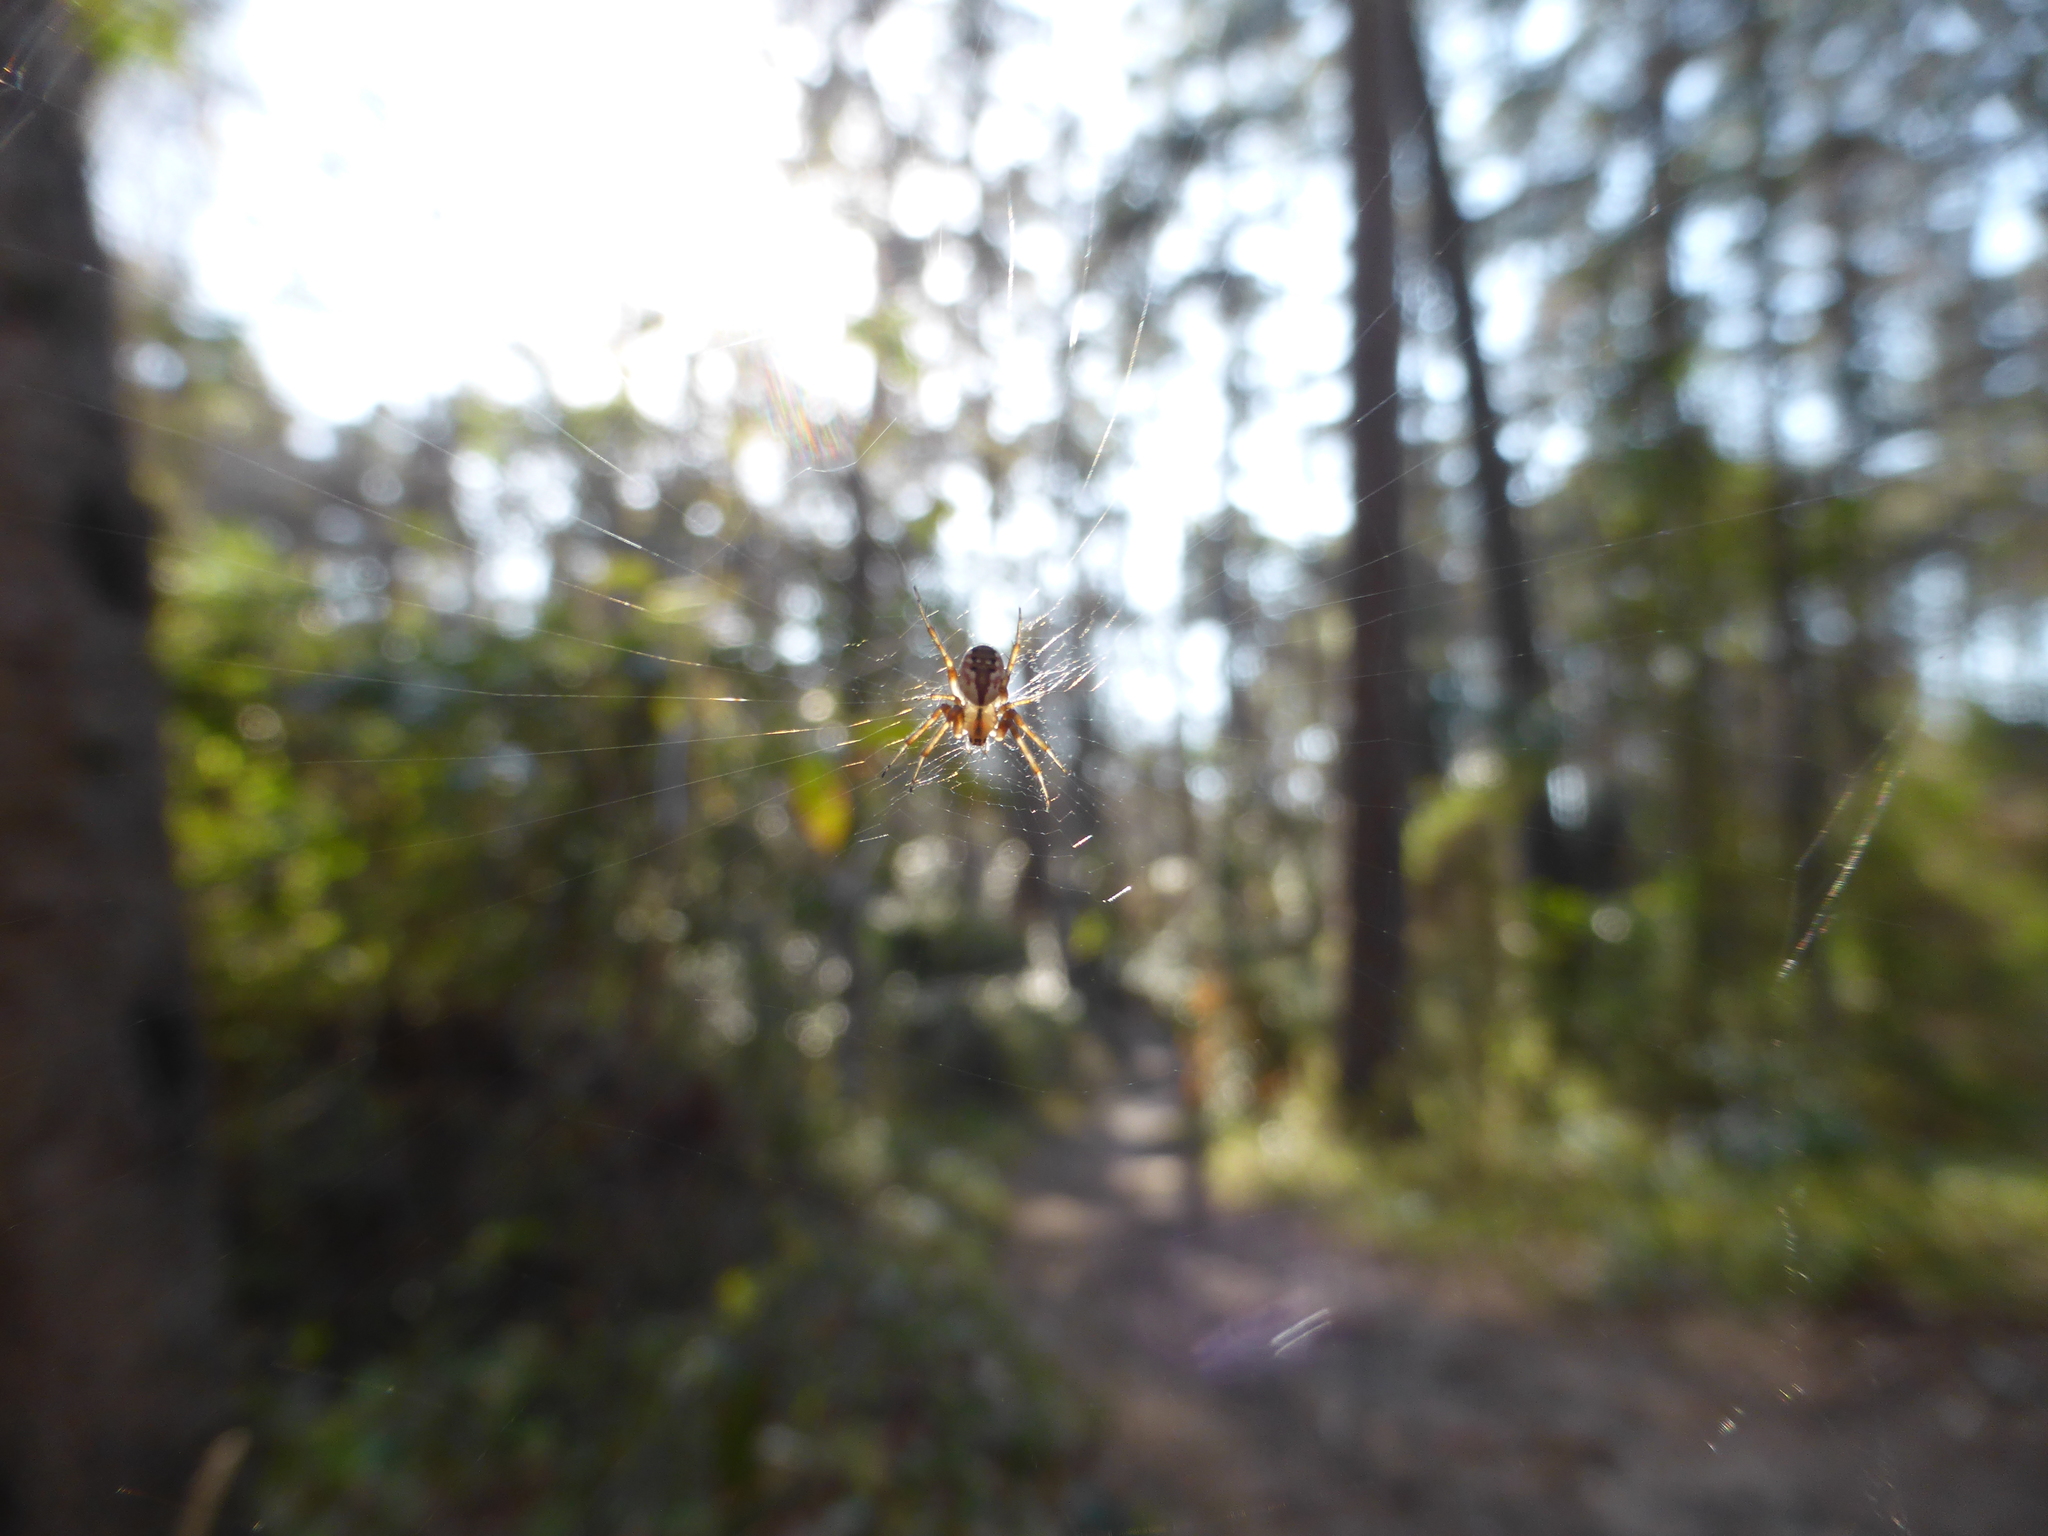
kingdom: Animalia
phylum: Arthropoda
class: Arachnida
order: Araneae
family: Araneidae
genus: Mangora
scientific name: Mangora placida
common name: Tuft-legged orbweaver
